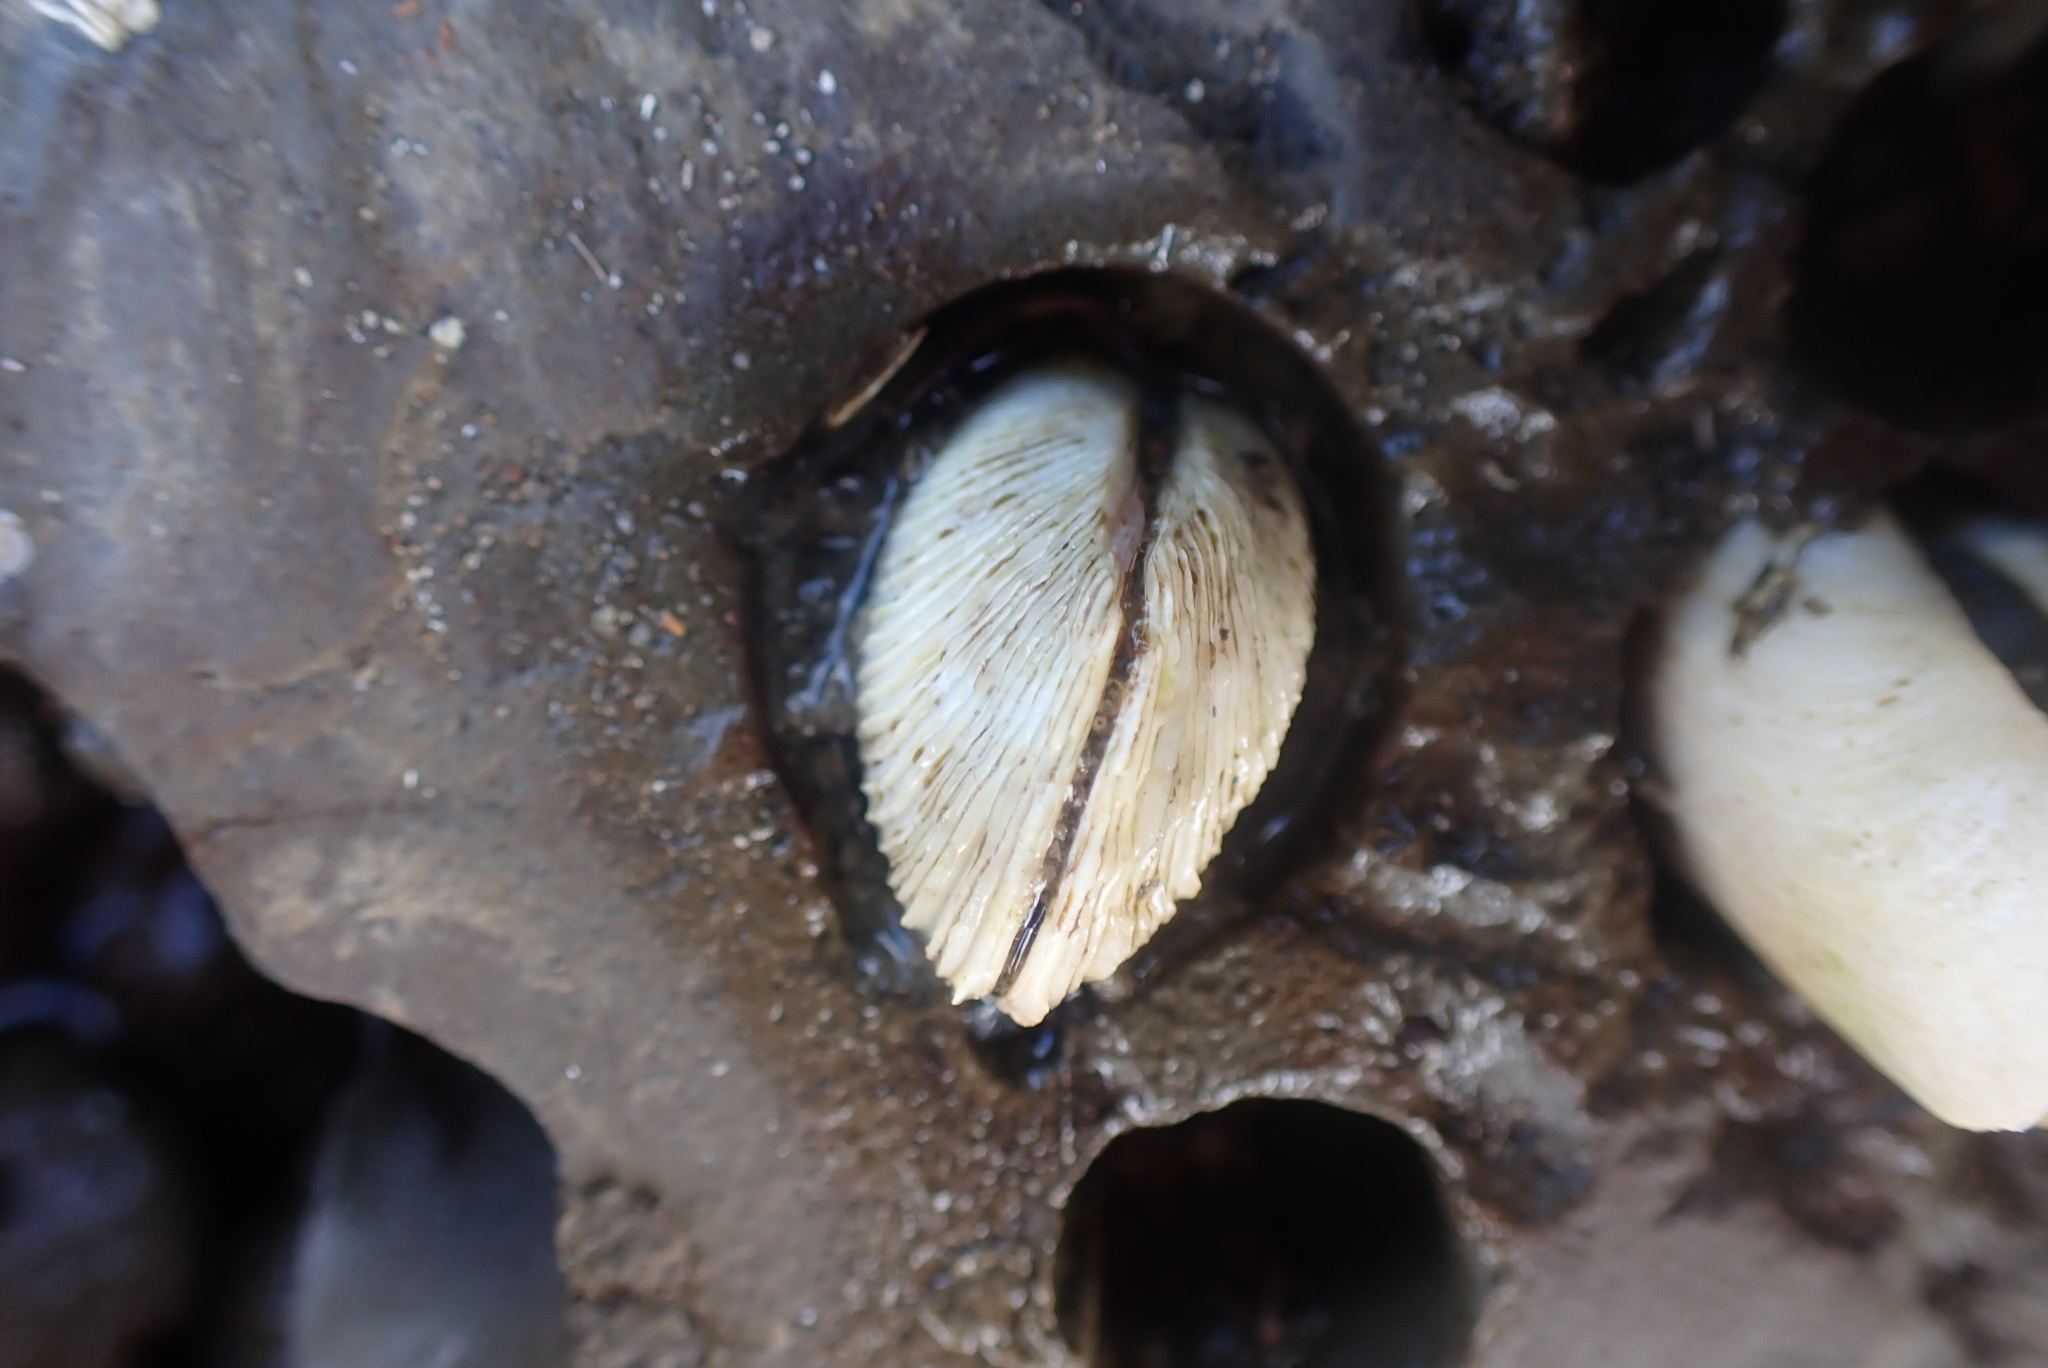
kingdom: Animalia
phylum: Mollusca
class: Bivalvia
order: Venerida
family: Veneridae
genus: Irus
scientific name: Irus reflexus
